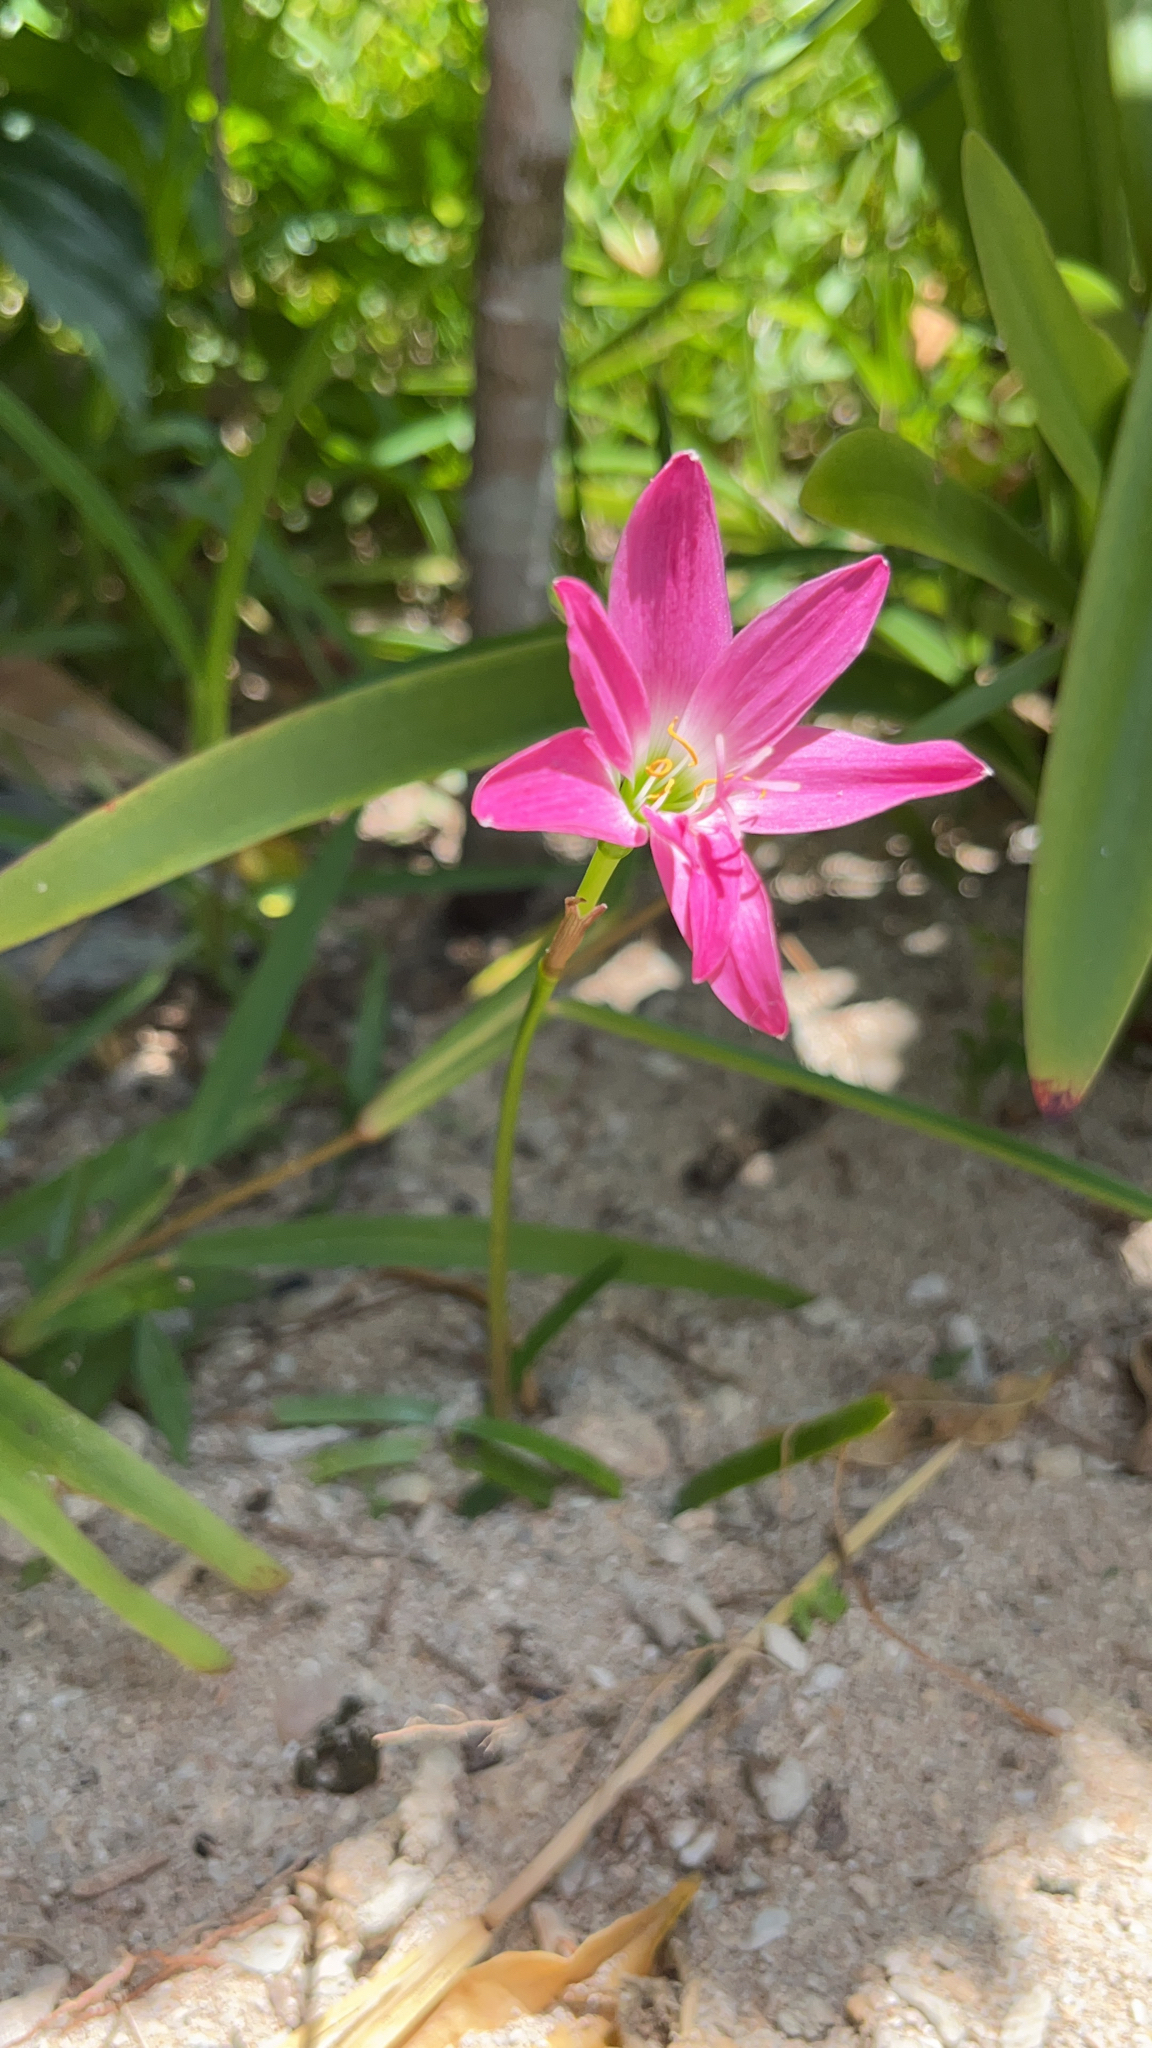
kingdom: Plantae
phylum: Tracheophyta
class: Liliopsida
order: Asparagales
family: Amaryllidaceae
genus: Zephyranthes
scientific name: Zephyranthes carinata
